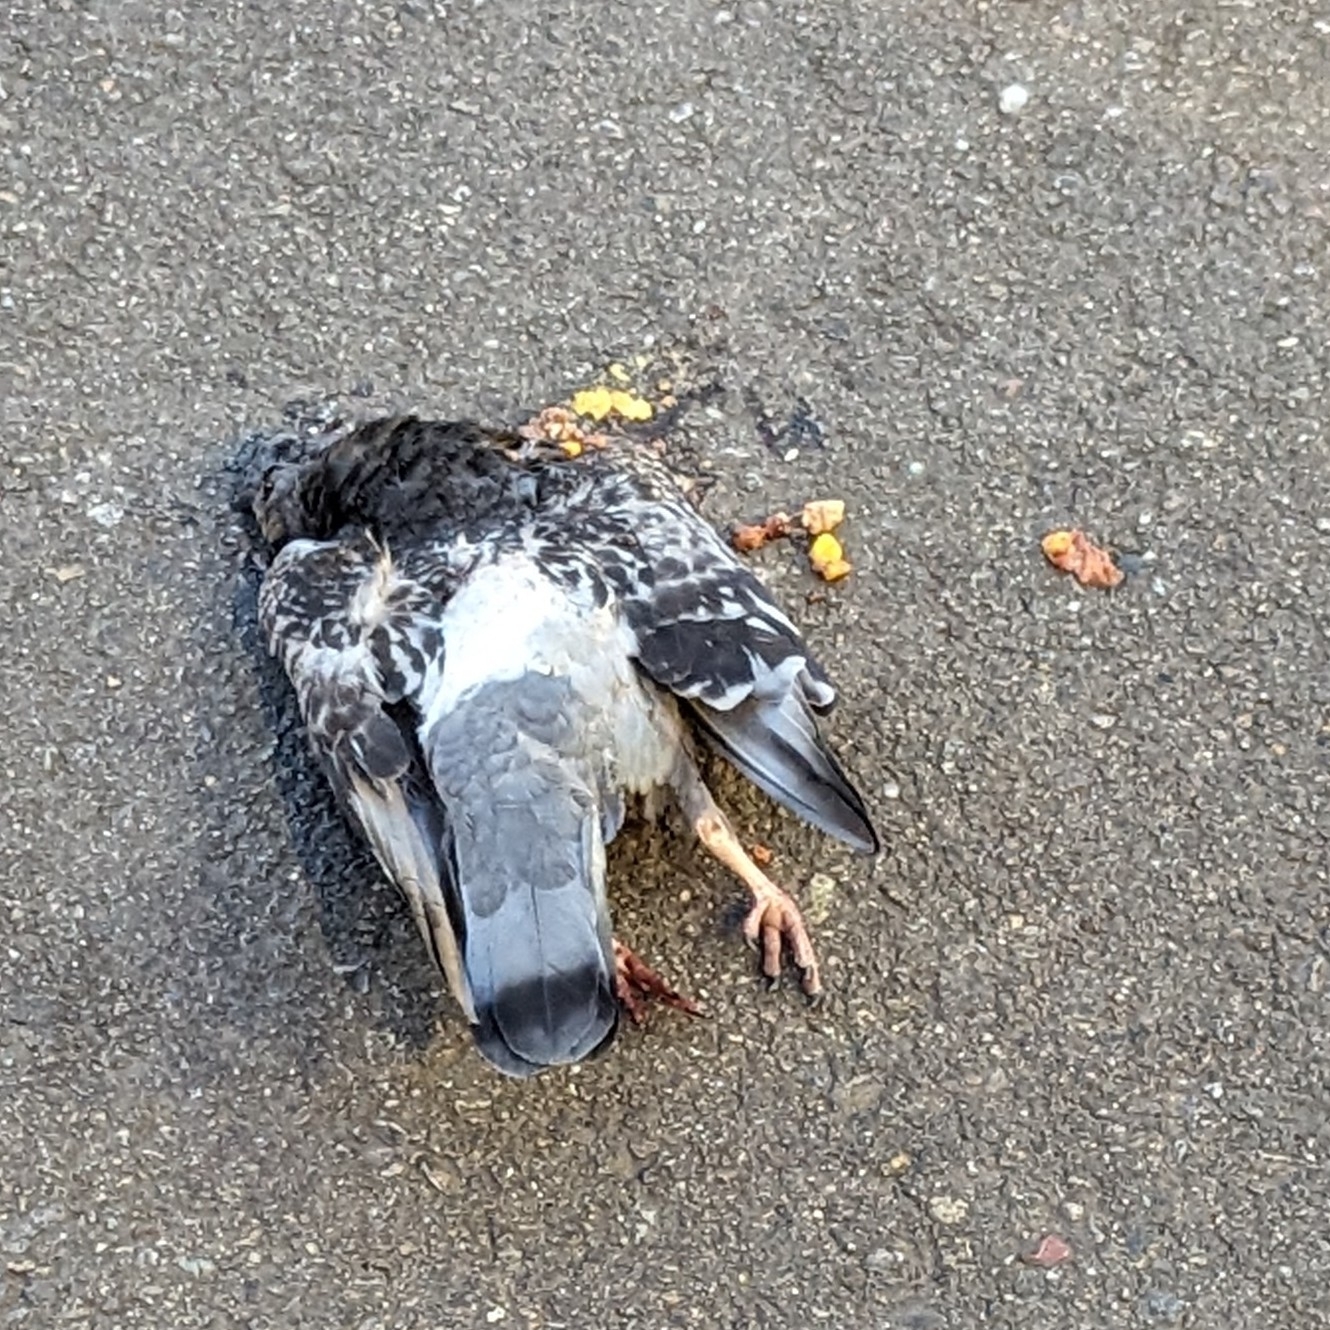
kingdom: Animalia
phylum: Chordata
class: Aves
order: Columbiformes
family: Columbidae
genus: Columba
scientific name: Columba livia
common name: Rock pigeon
